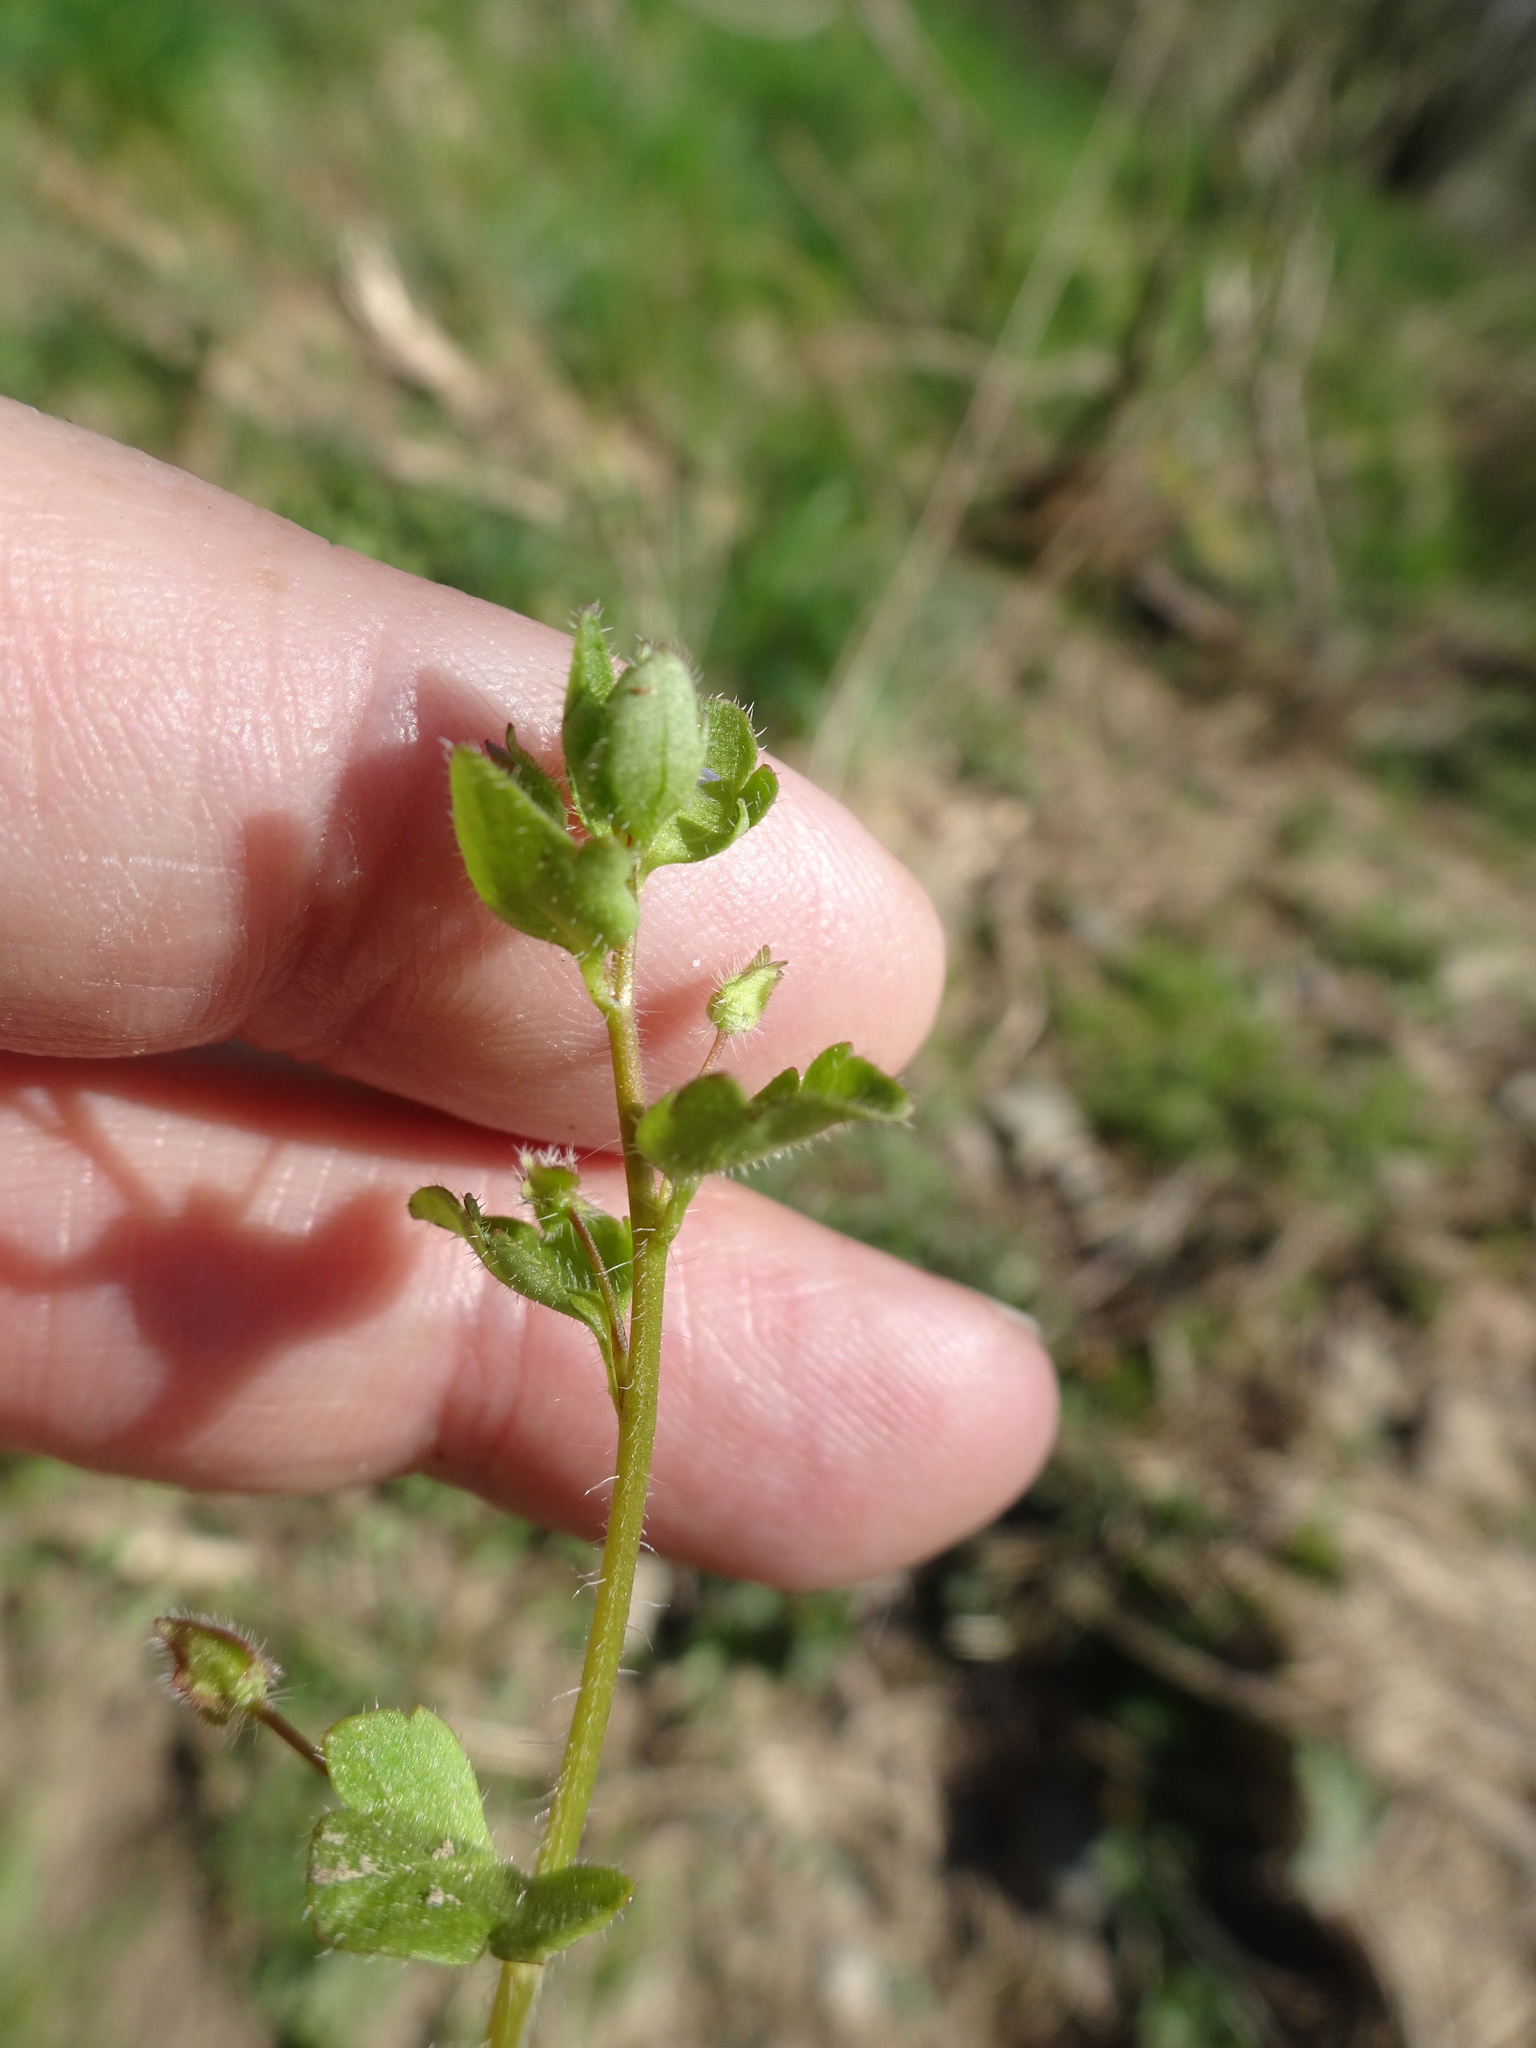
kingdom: Plantae
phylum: Tracheophyta
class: Magnoliopsida
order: Lamiales
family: Plantaginaceae
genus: Veronica
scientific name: Veronica hederifolia
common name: Ivy-leaved speedwell
